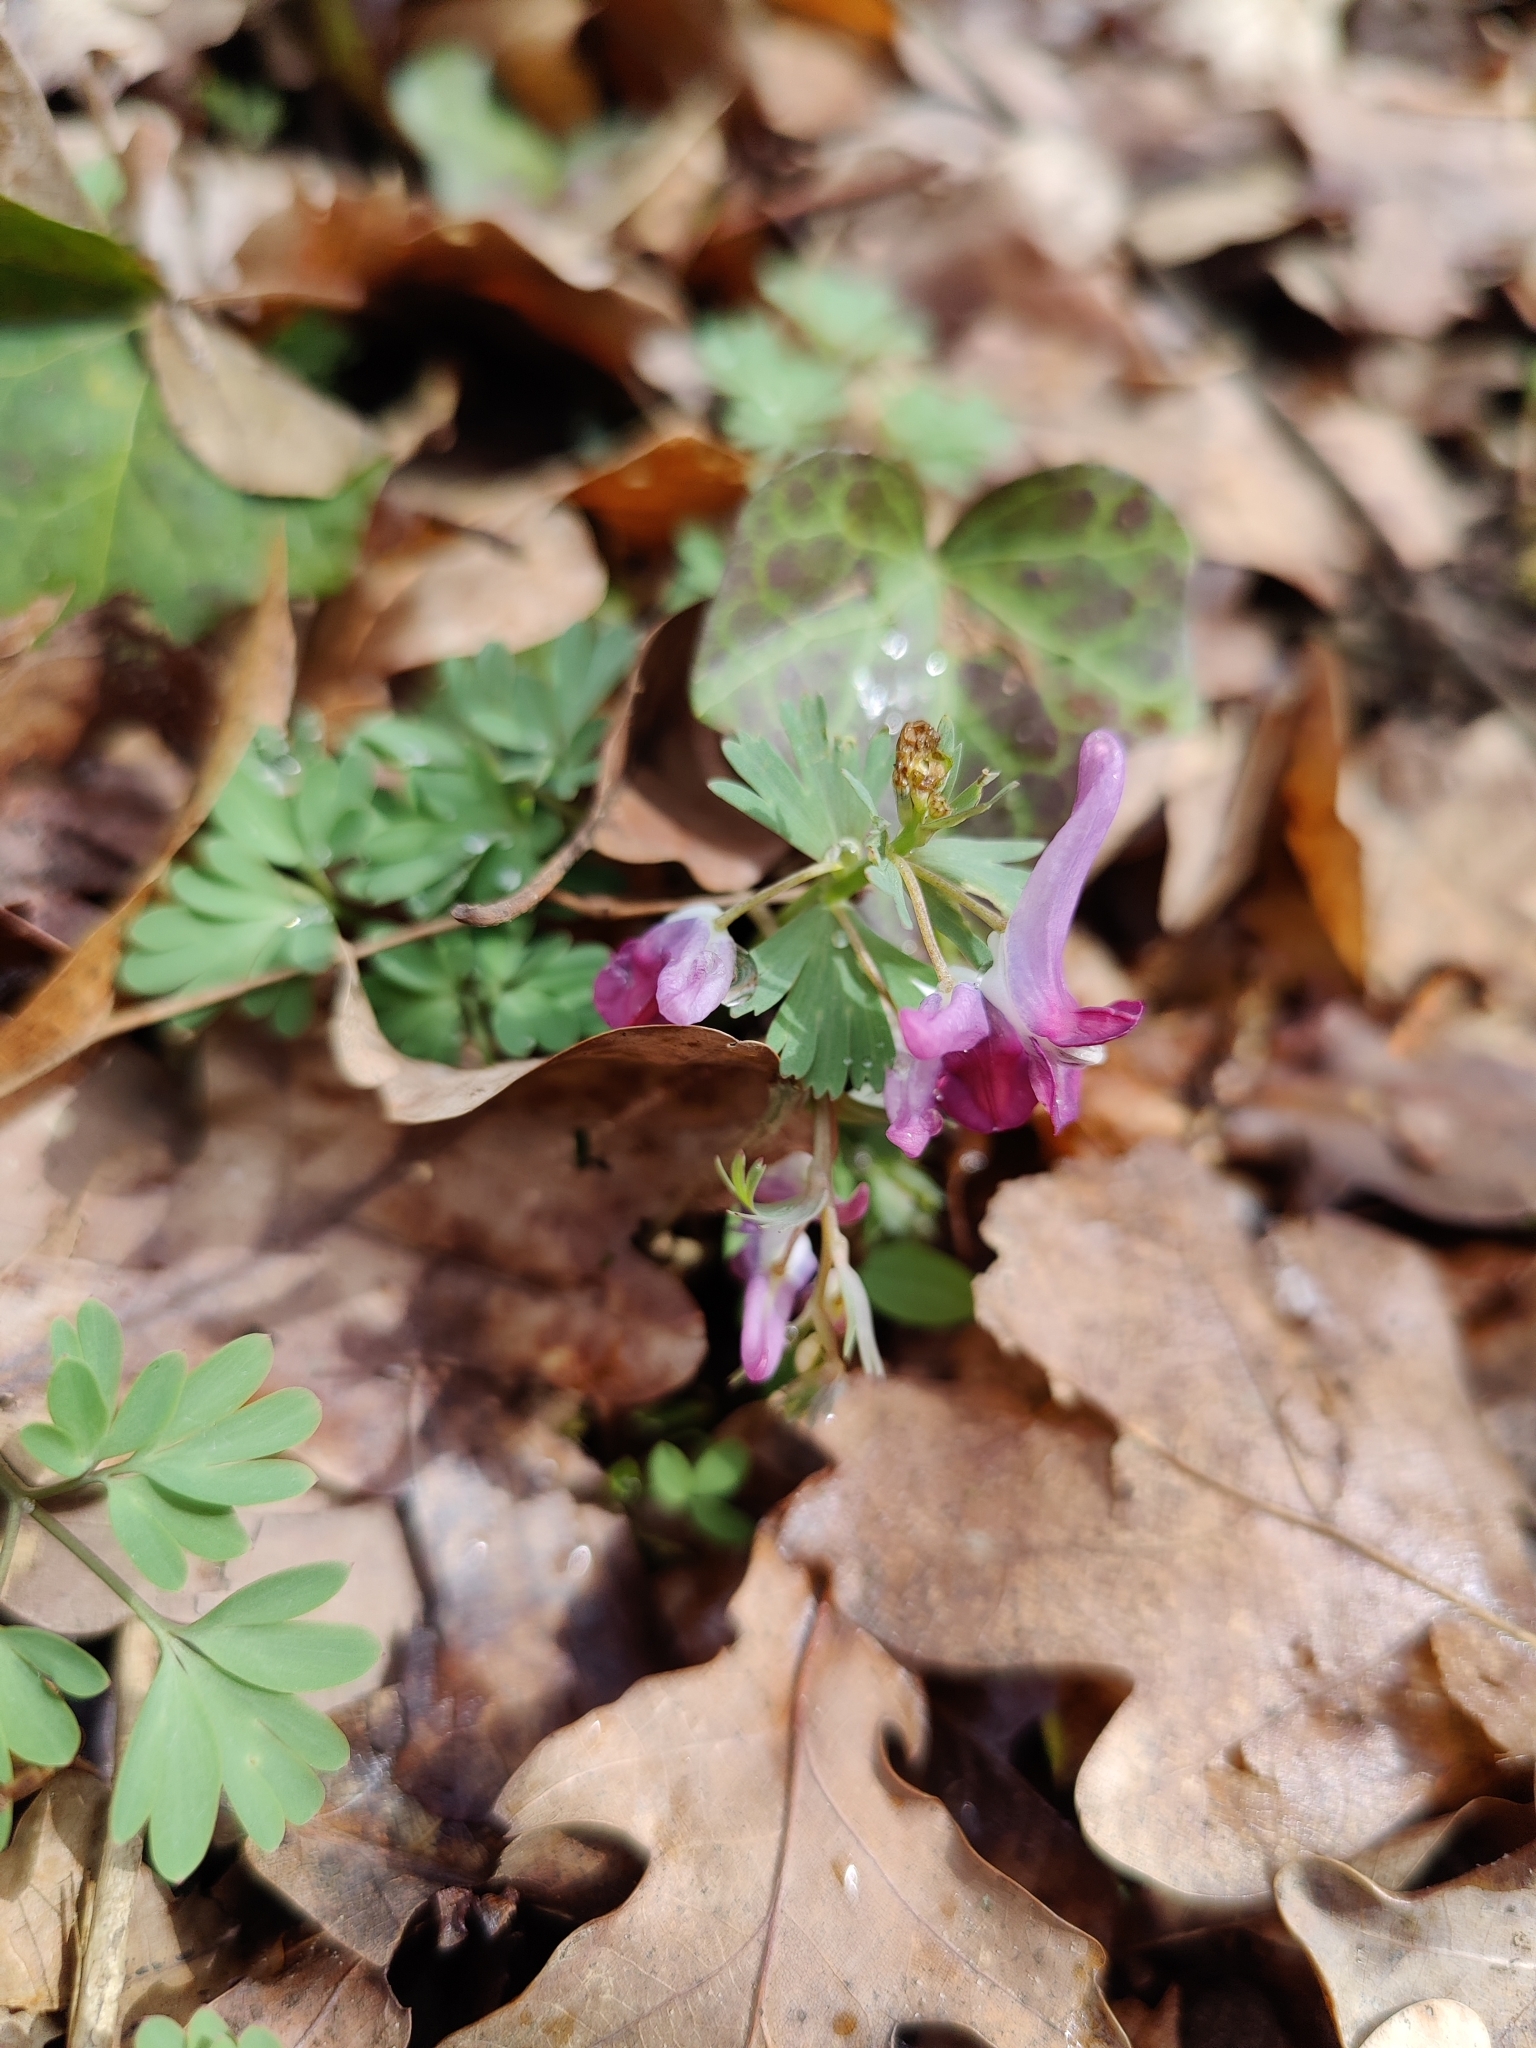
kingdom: Plantae
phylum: Tracheophyta
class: Magnoliopsida
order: Ranunculales
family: Papaveraceae
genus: Corydalis
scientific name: Corydalis solida
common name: Bird-in-a-bush
